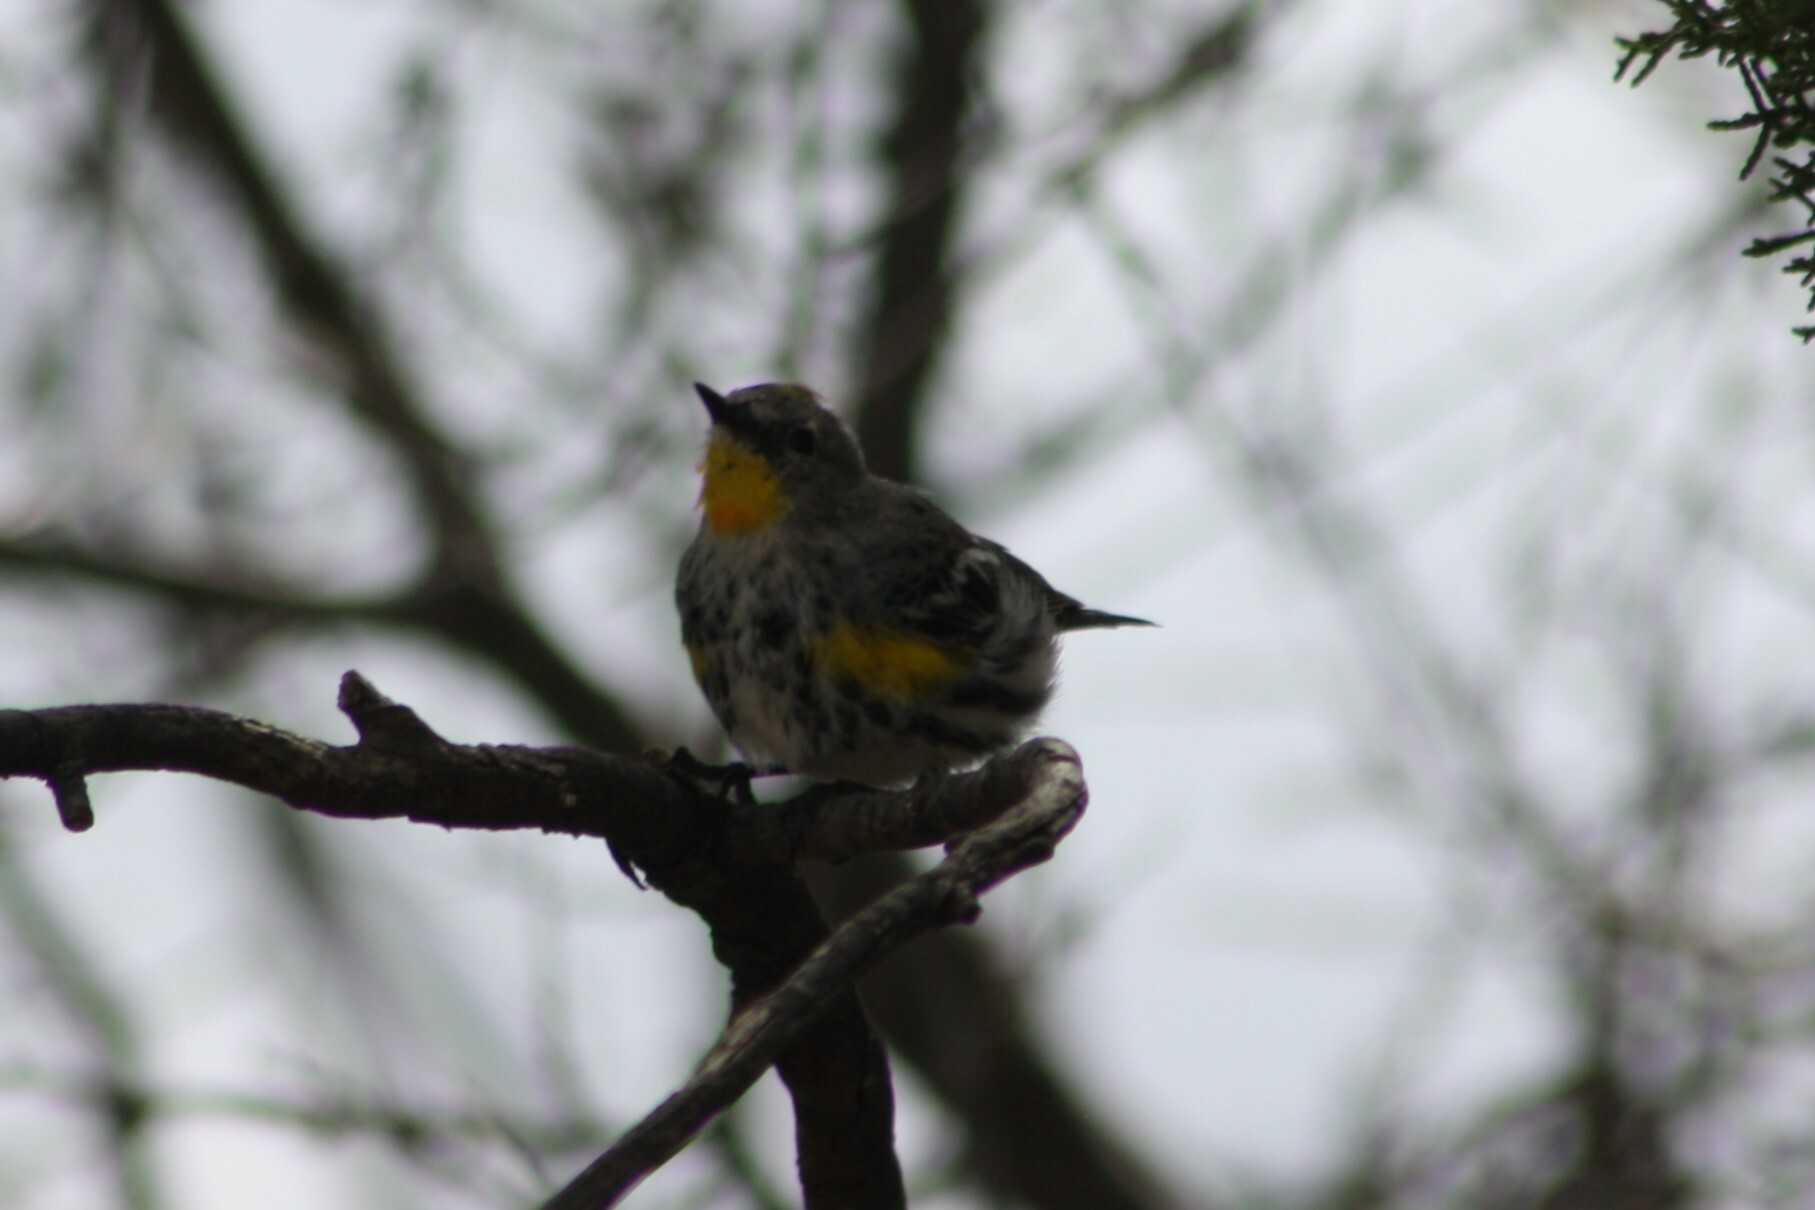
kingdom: Animalia
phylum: Chordata
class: Aves
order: Passeriformes
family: Parulidae
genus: Setophaga
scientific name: Setophaga coronata
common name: Myrtle warbler
